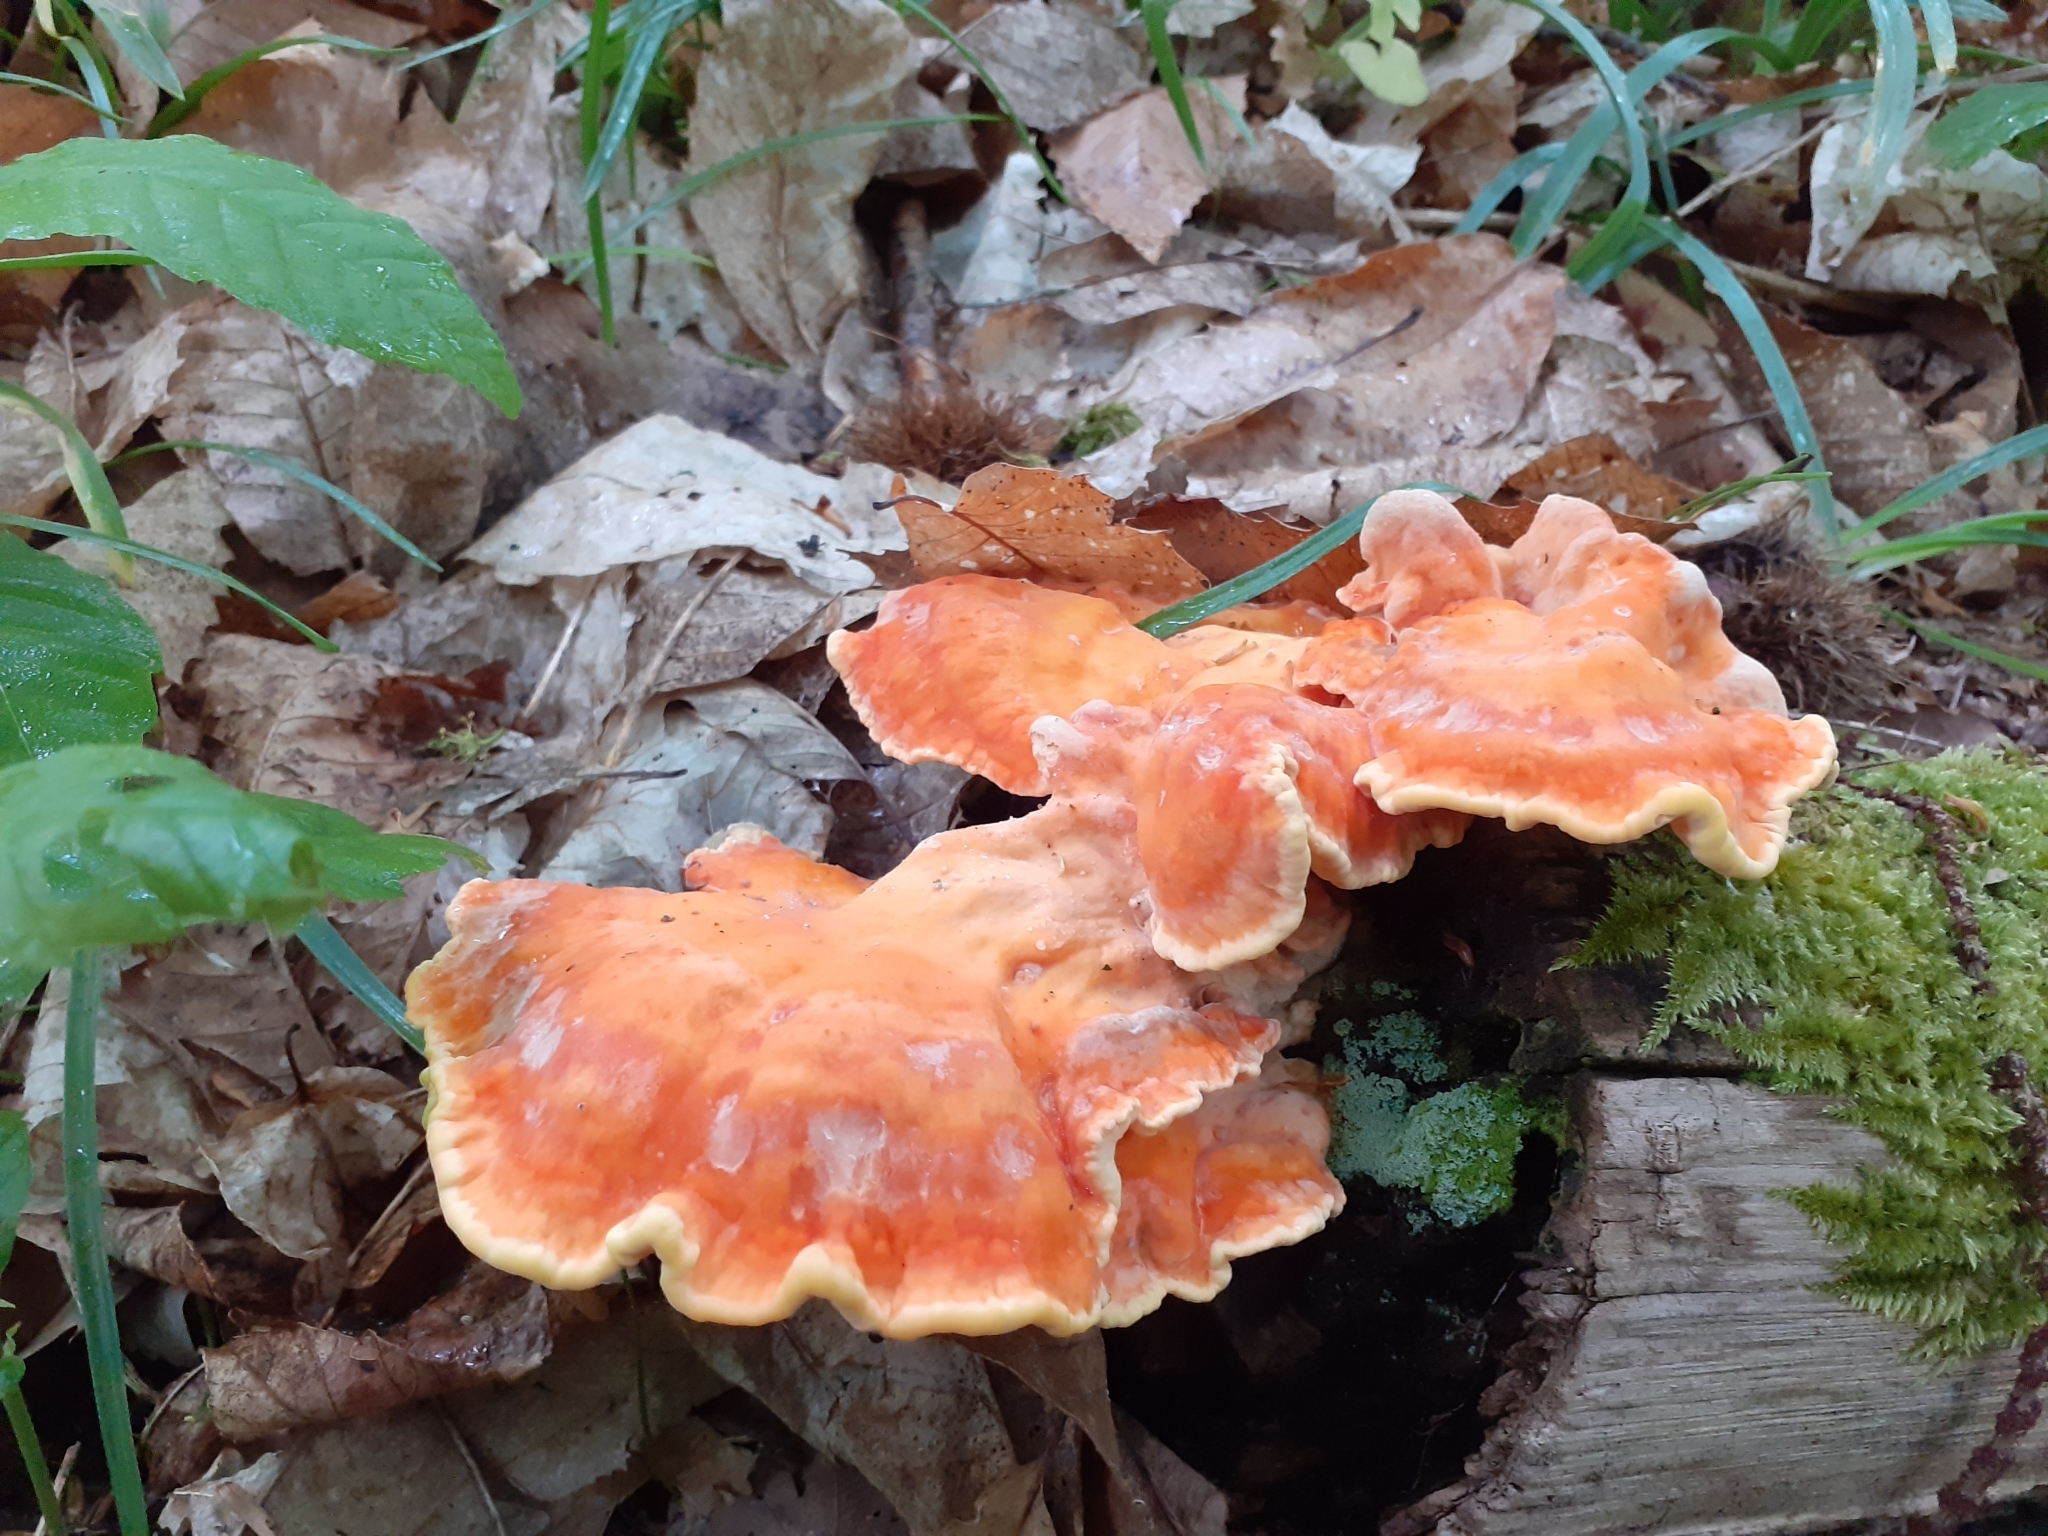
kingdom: Fungi
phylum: Basidiomycota
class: Agaricomycetes
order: Polyporales
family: Laetiporaceae
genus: Laetiporus
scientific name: Laetiporus sulphureus
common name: Chicken of the woods
